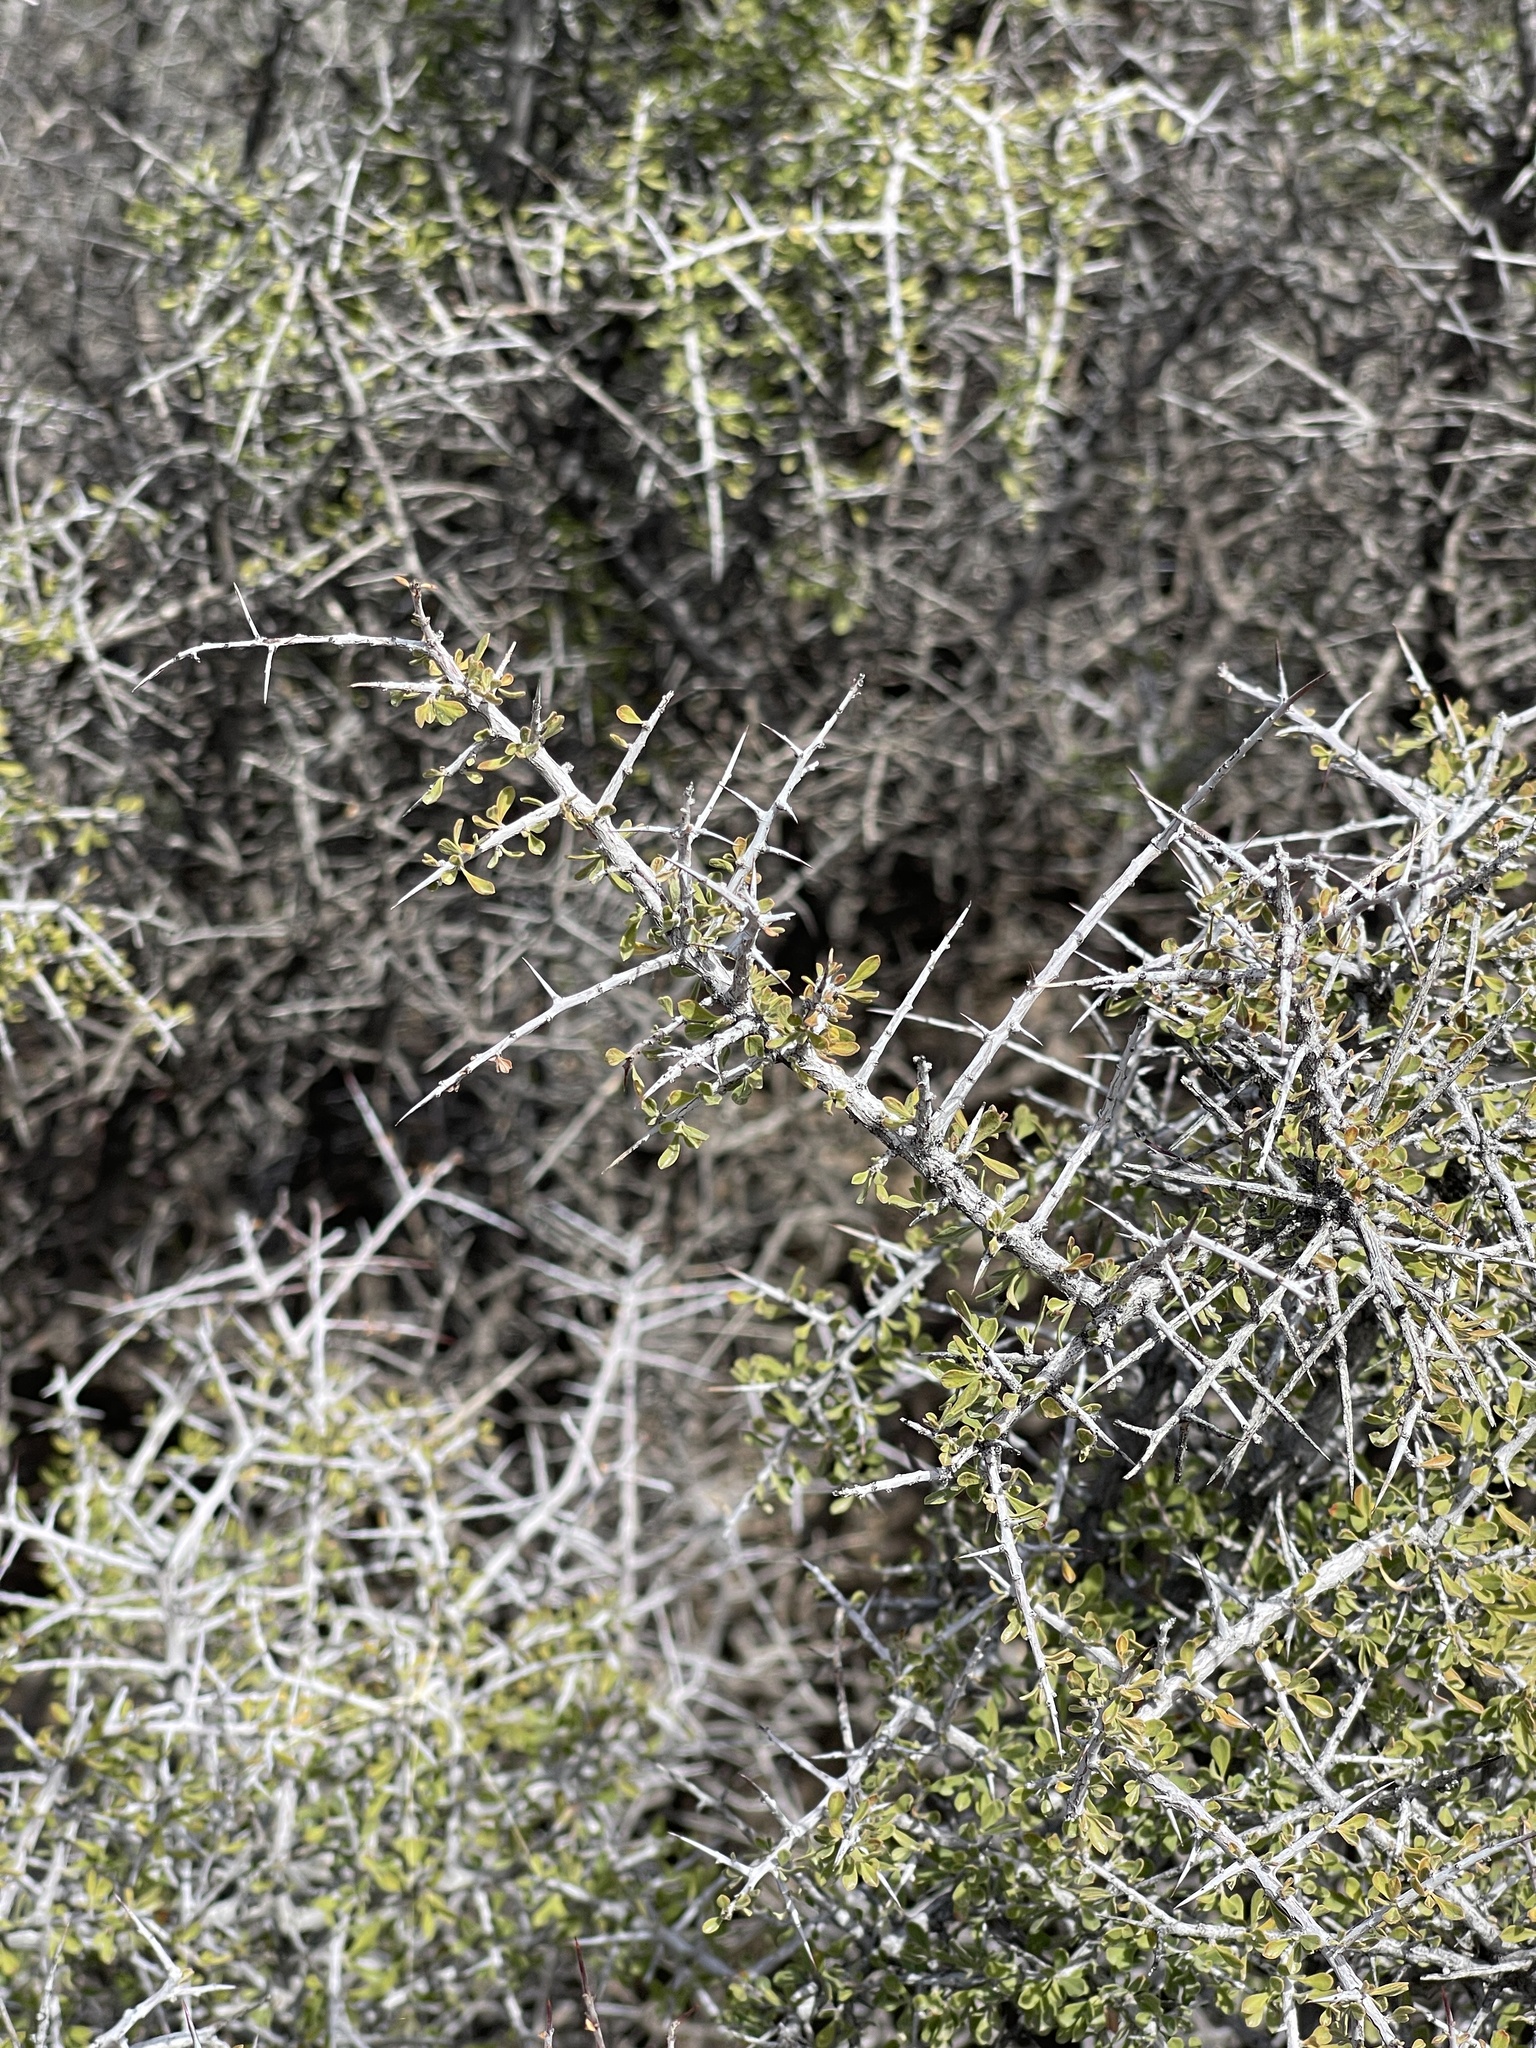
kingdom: Plantae
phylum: Tracheophyta
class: Magnoliopsida
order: Rosales
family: Rhamnaceae
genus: Condalia
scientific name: Condalia warnockii
